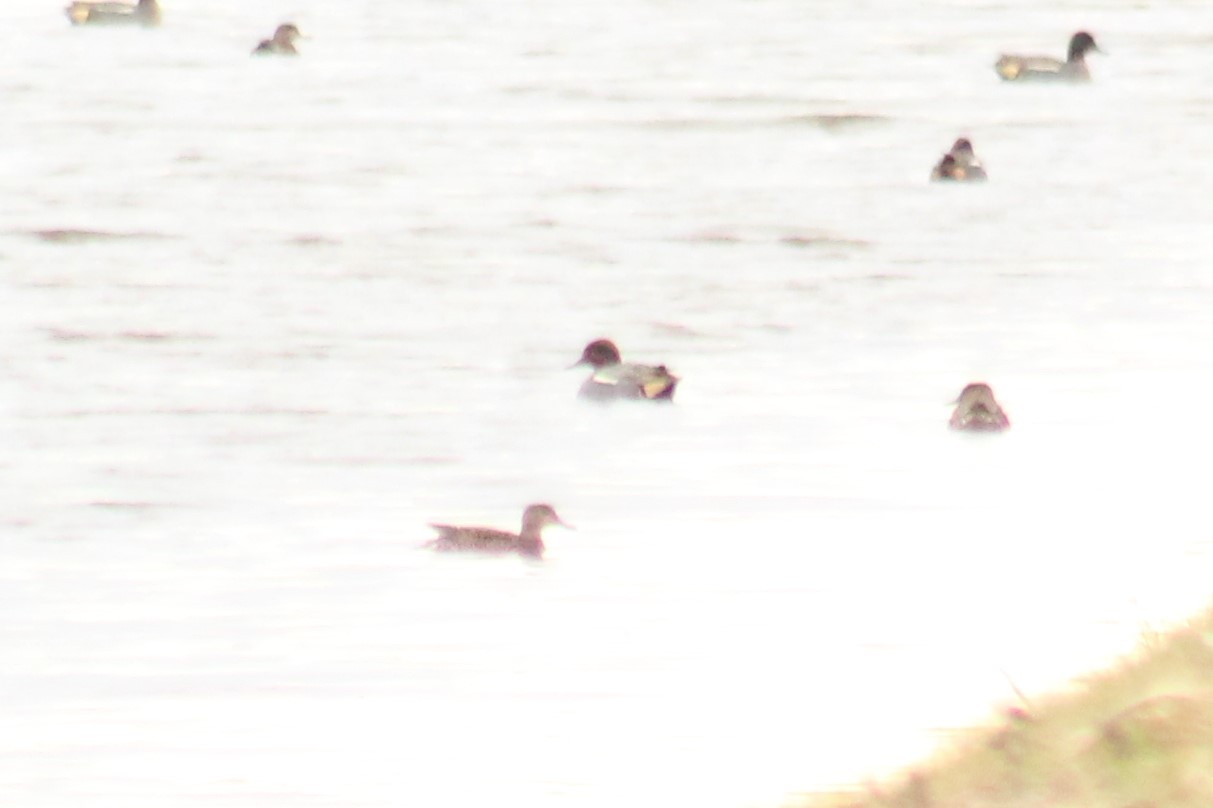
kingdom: Animalia
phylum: Chordata
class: Aves
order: Anseriformes
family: Anatidae
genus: Anas
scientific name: Anas crecca
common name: Eurasian teal
